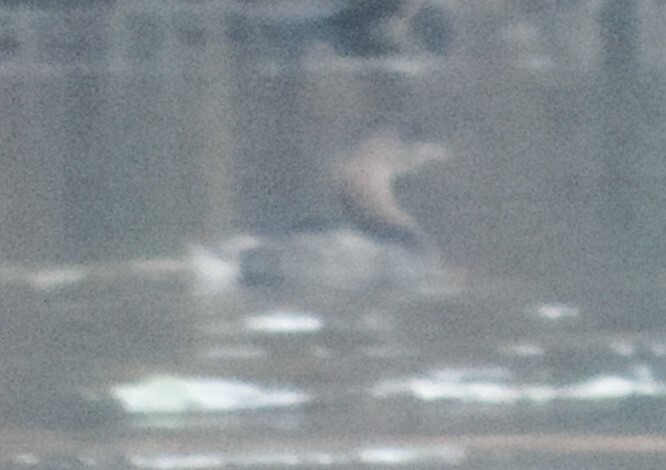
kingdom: Animalia
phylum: Chordata
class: Aves
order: Podicipediformes
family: Podicipedidae
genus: Podilymbus
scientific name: Podilymbus podiceps
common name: Pied-billed grebe
